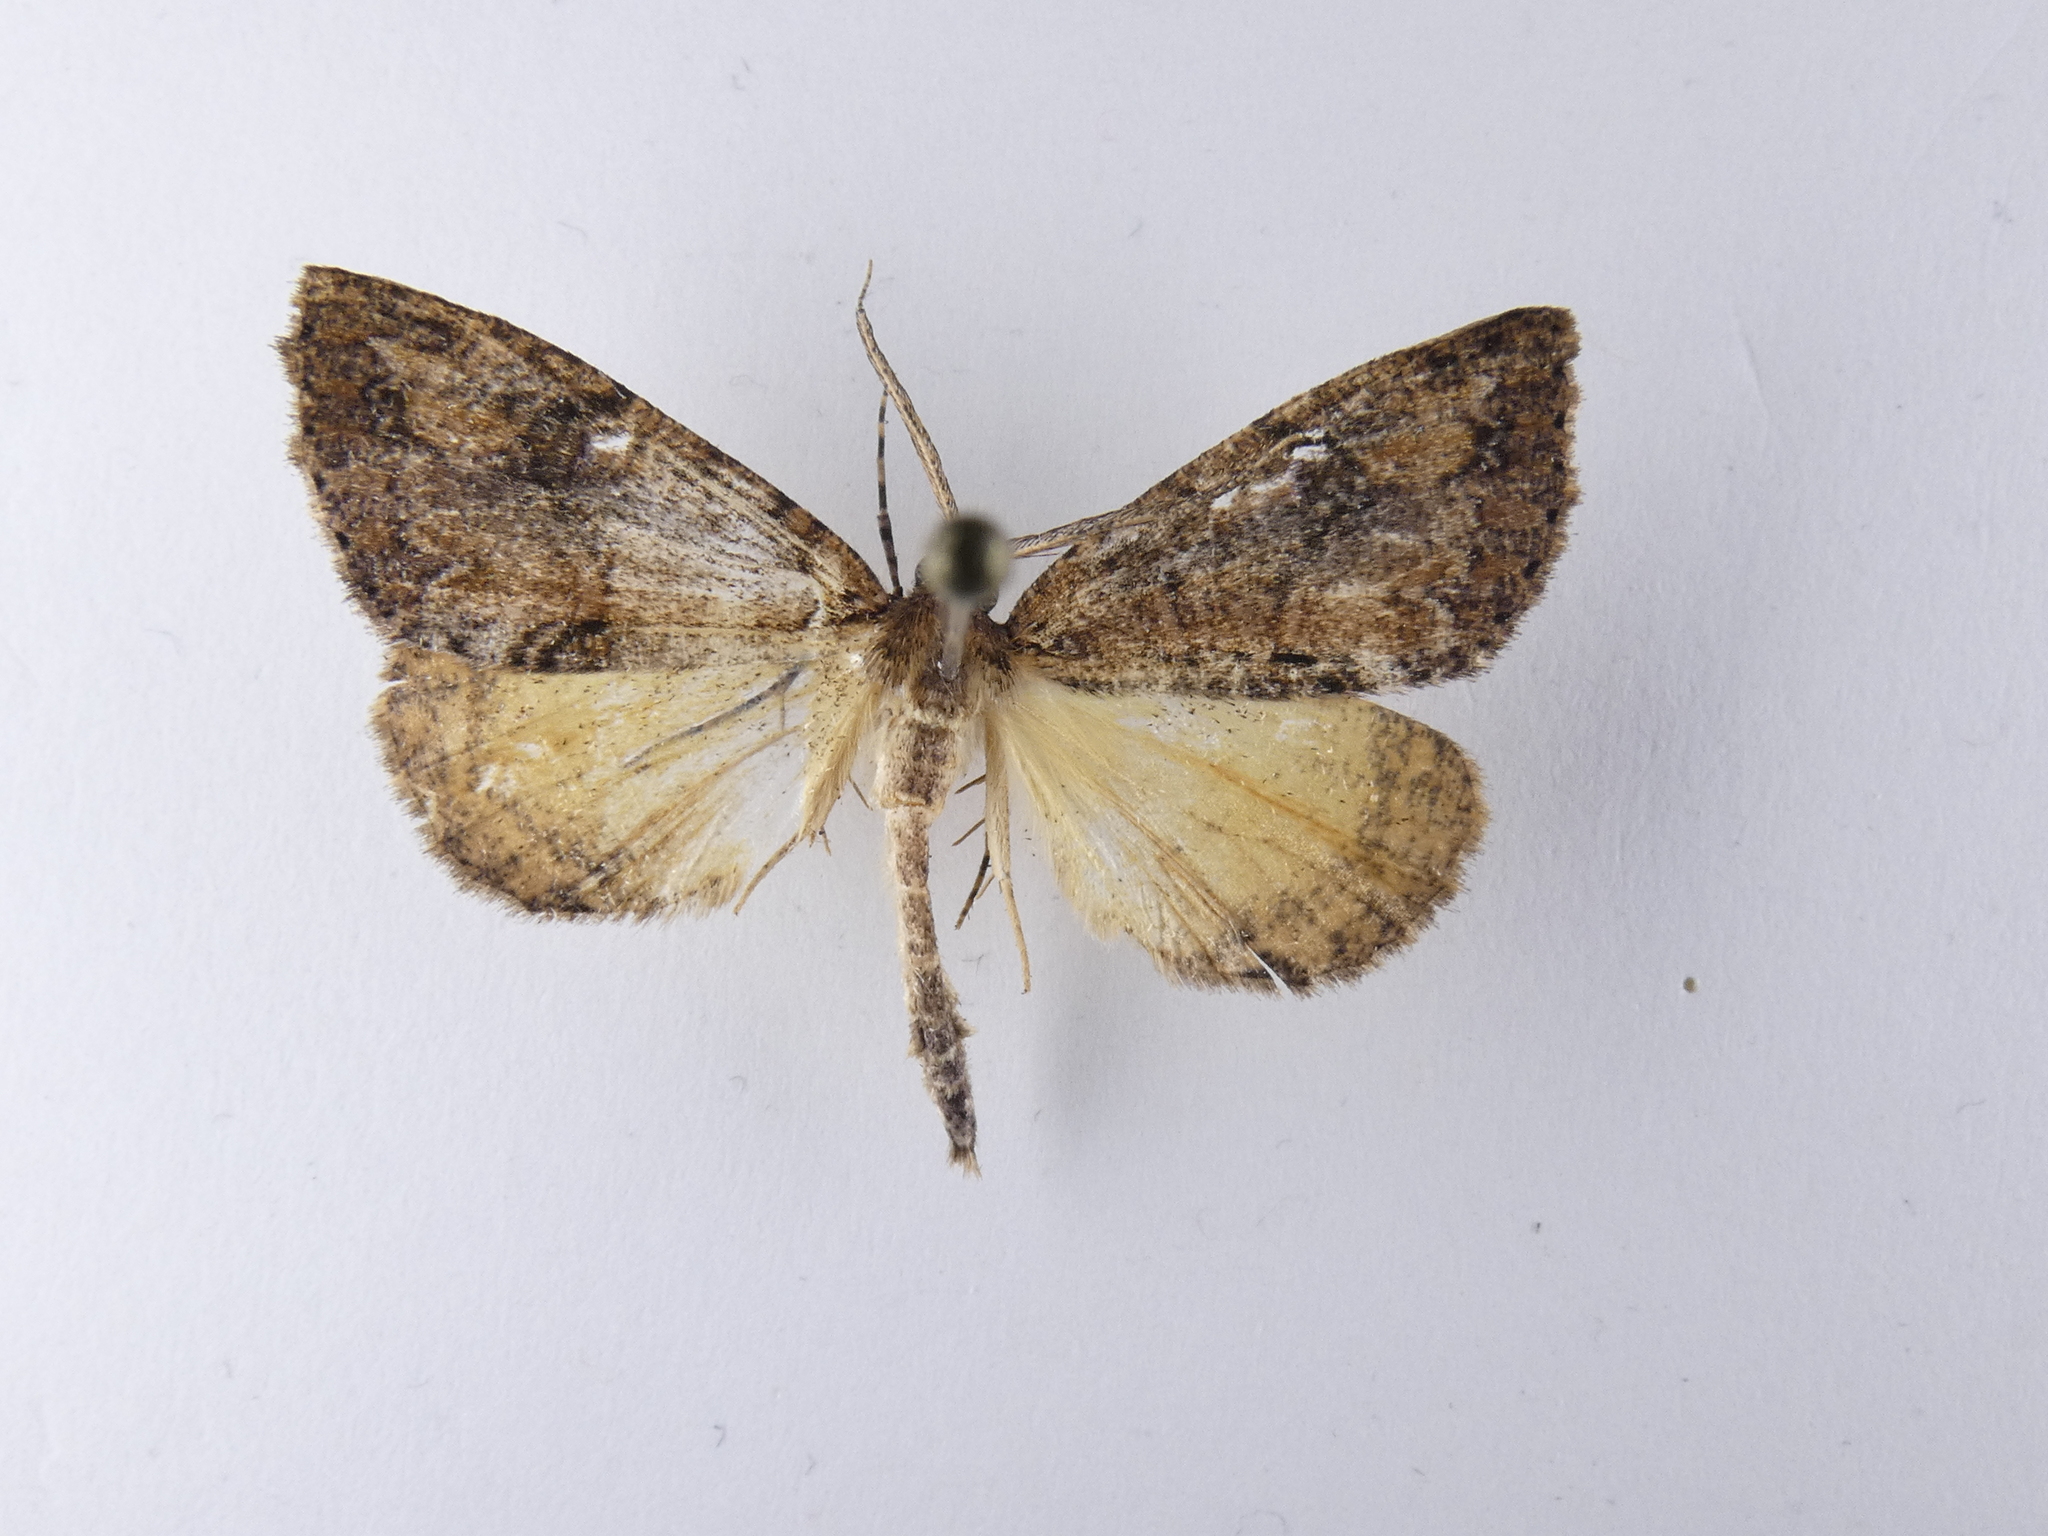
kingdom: Animalia
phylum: Arthropoda
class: Insecta
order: Lepidoptera
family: Geometridae
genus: Pseudocoremia
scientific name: Pseudocoremia suavis
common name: Common forest looper
